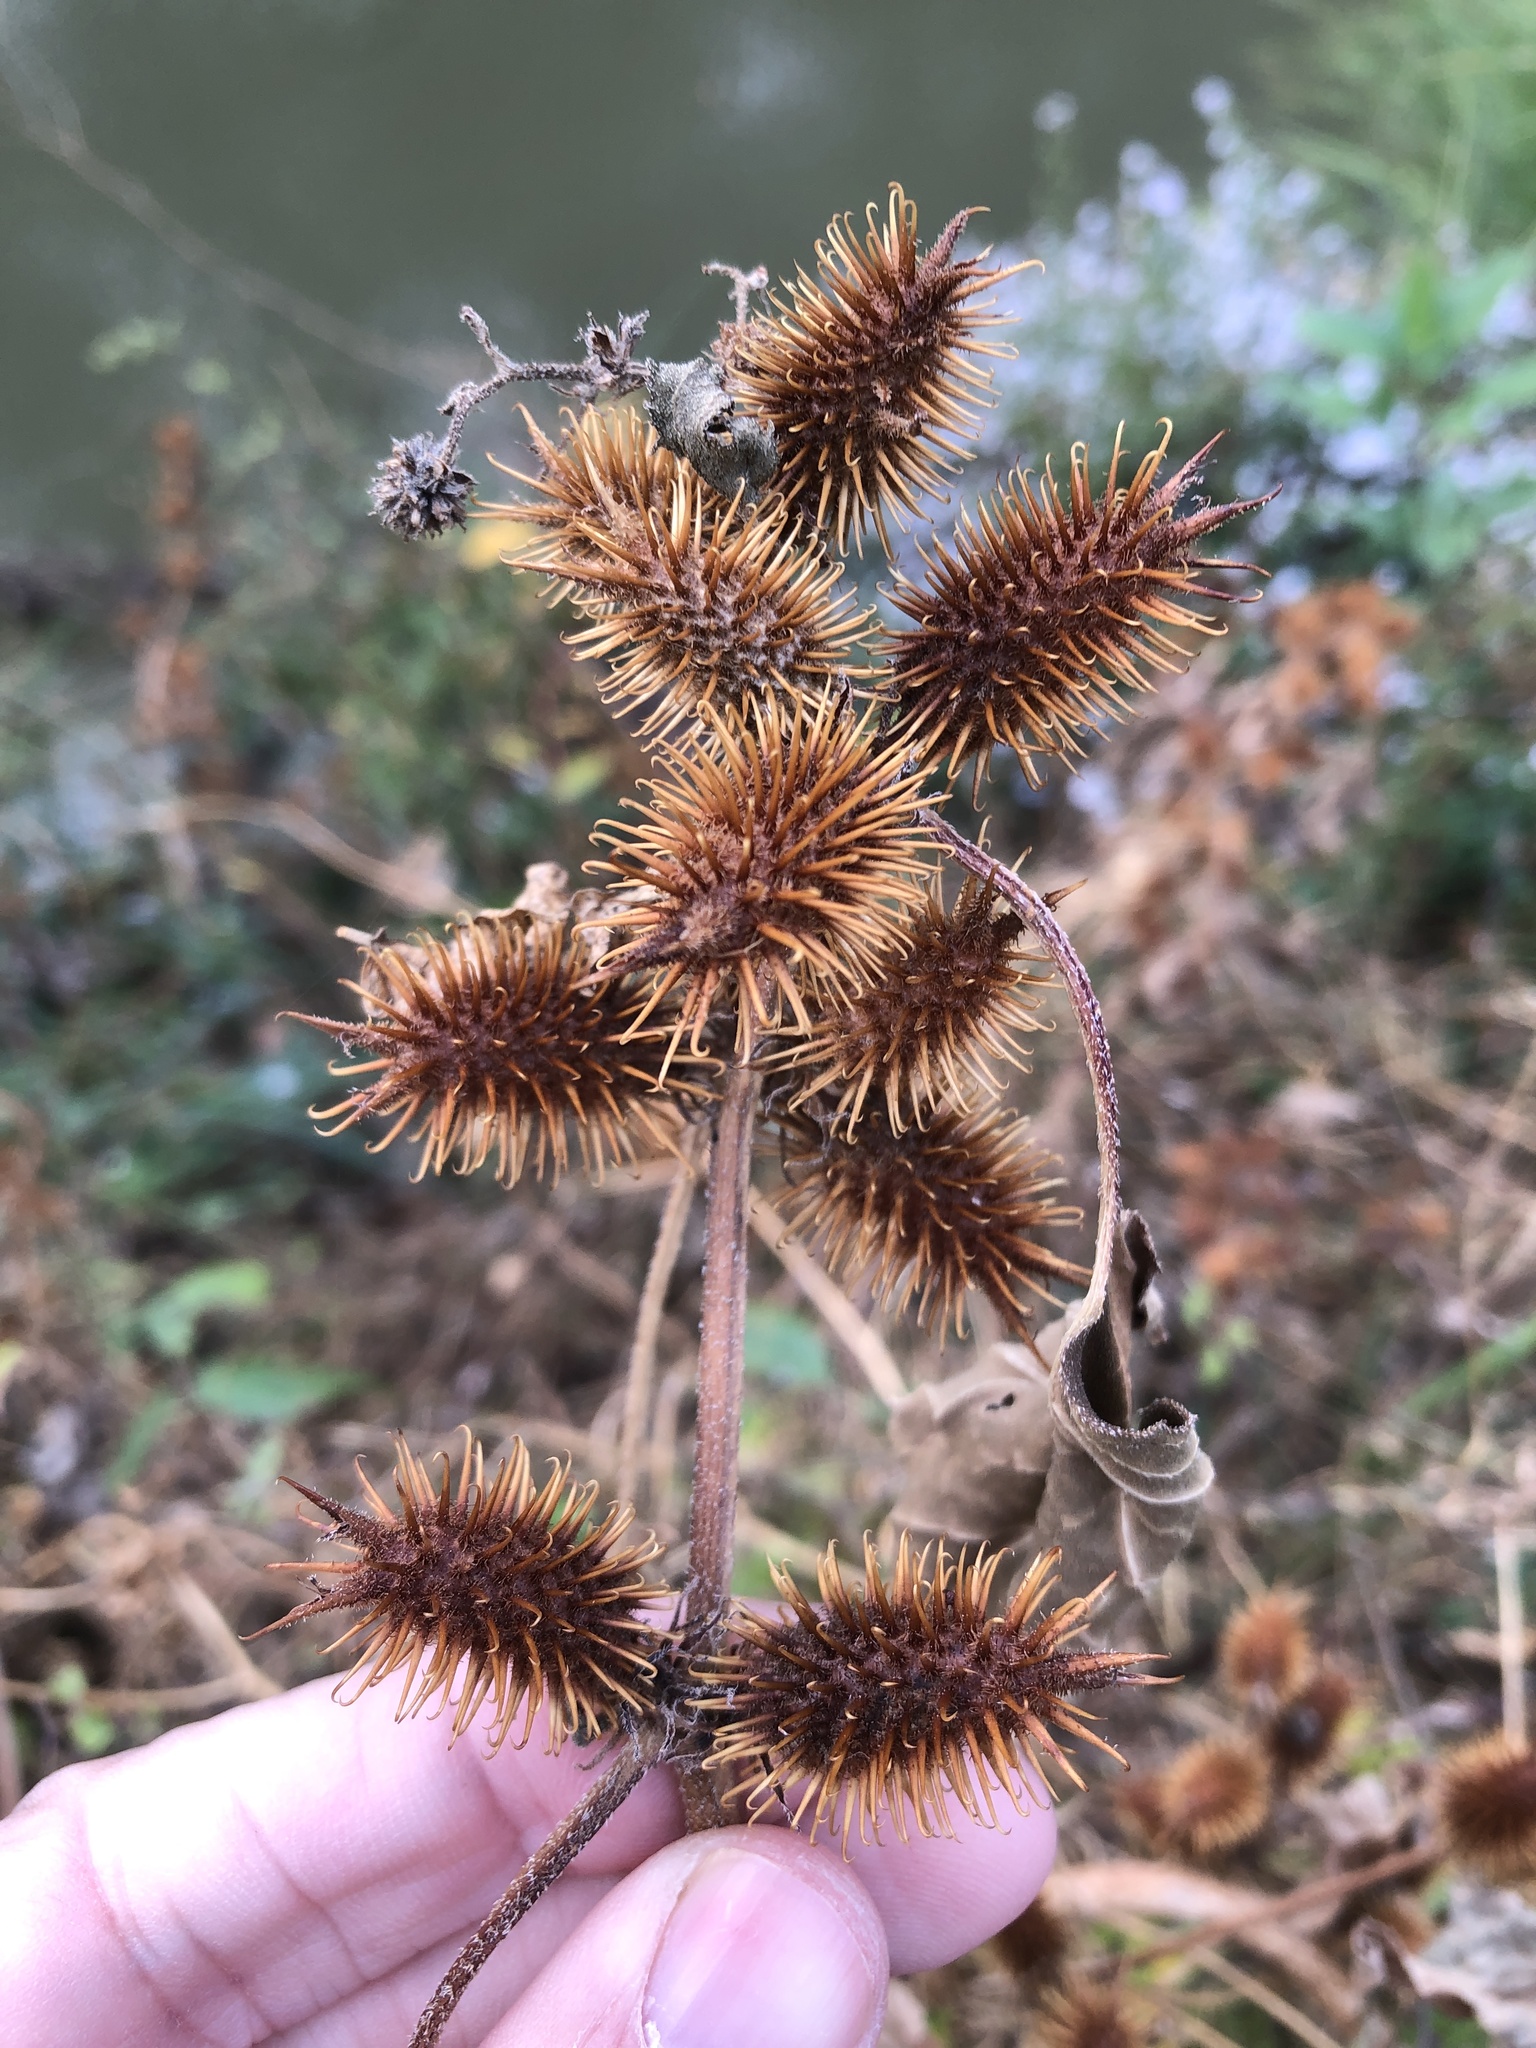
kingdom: Plantae
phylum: Tracheophyta
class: Magnoliopsida
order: Asterales
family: Asteraceae
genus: Xanthium
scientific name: Xanthium strumarium
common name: Rough cocklebur
